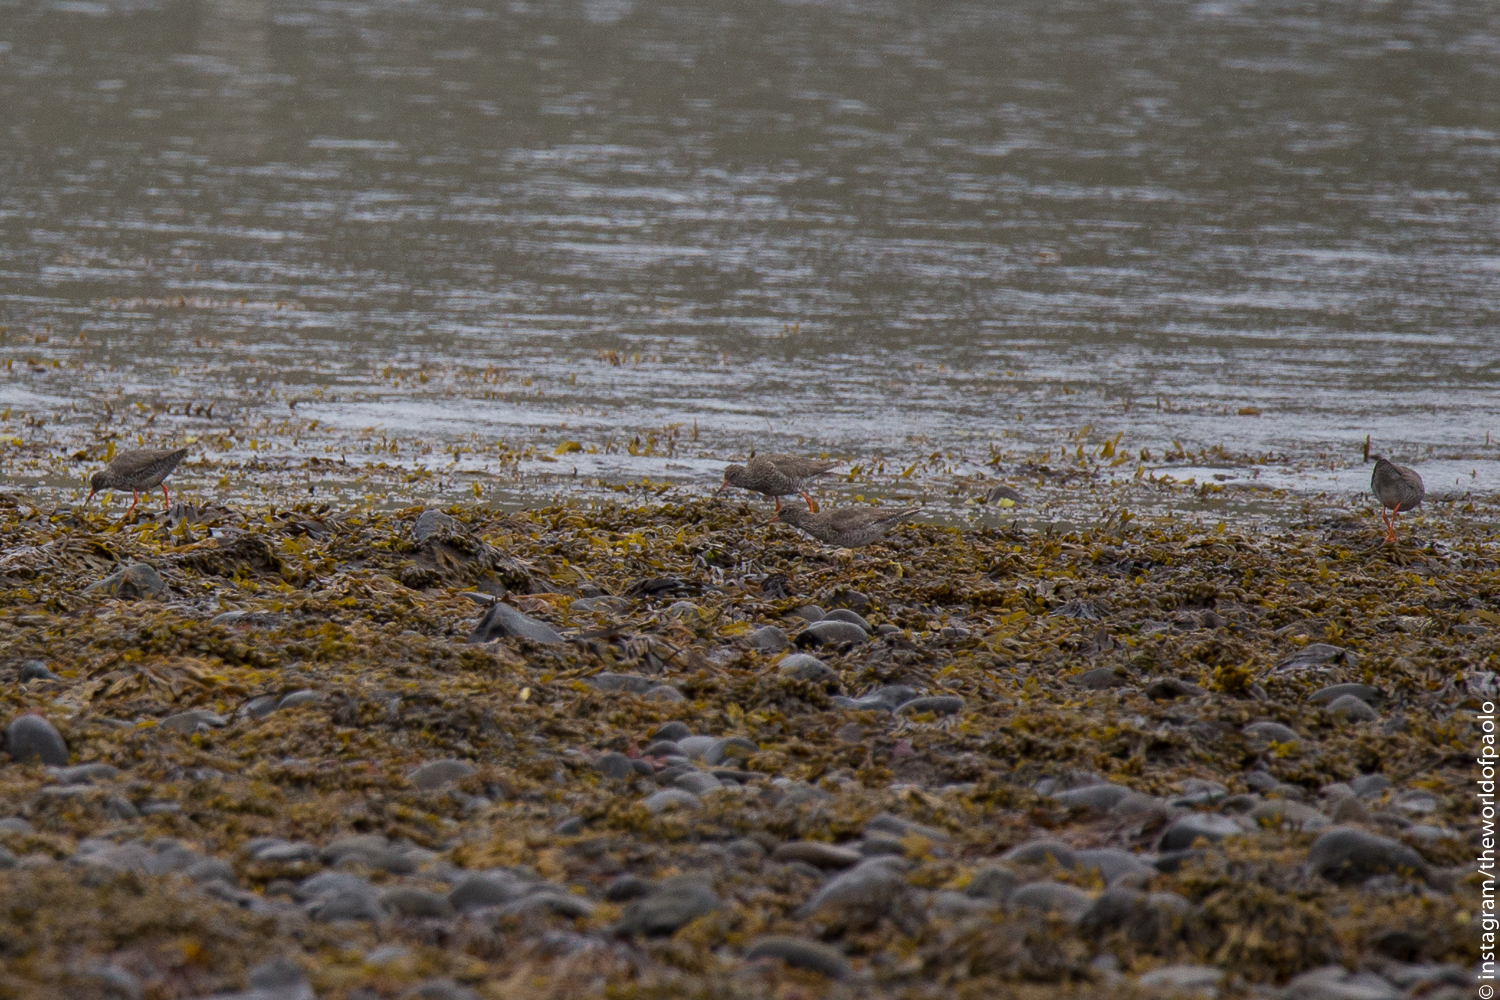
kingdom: Animalia
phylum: Chordata
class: Aves
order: Charadriiformes
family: Scolopacidae
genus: Tringa
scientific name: Tringa totanus
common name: Common redshank
